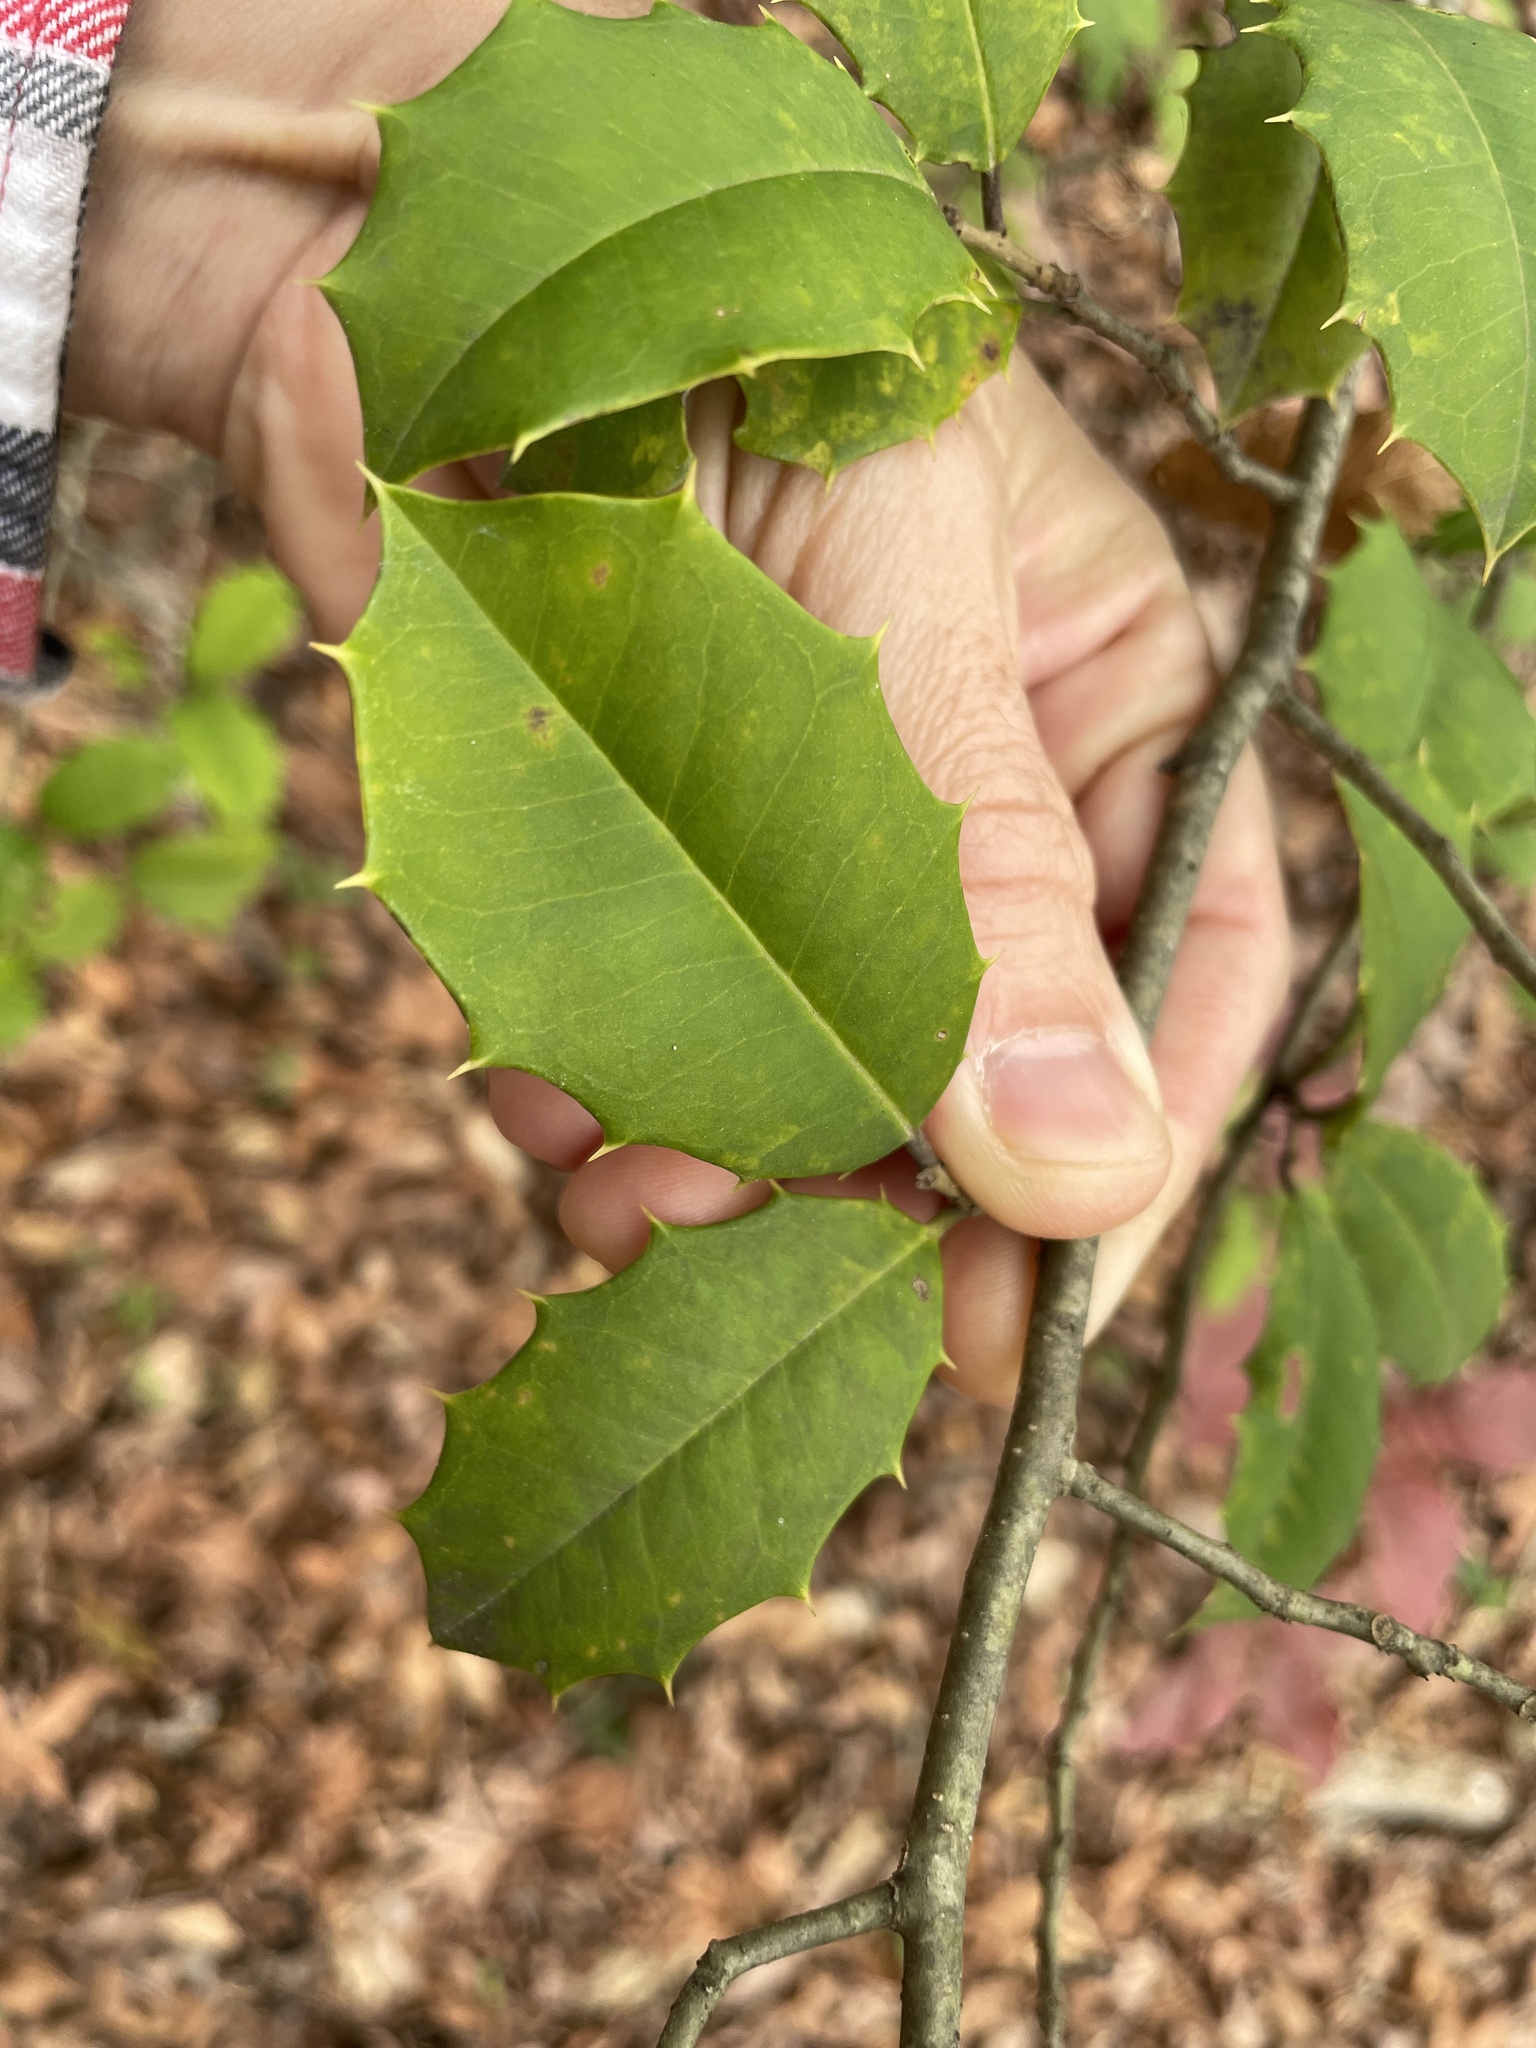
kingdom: Plantae
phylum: Tracheophyta
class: Magnoliopsida
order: Aquifoliales
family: Aquifoliaceae
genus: Ilex
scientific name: Ilex opaca
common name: American holly
